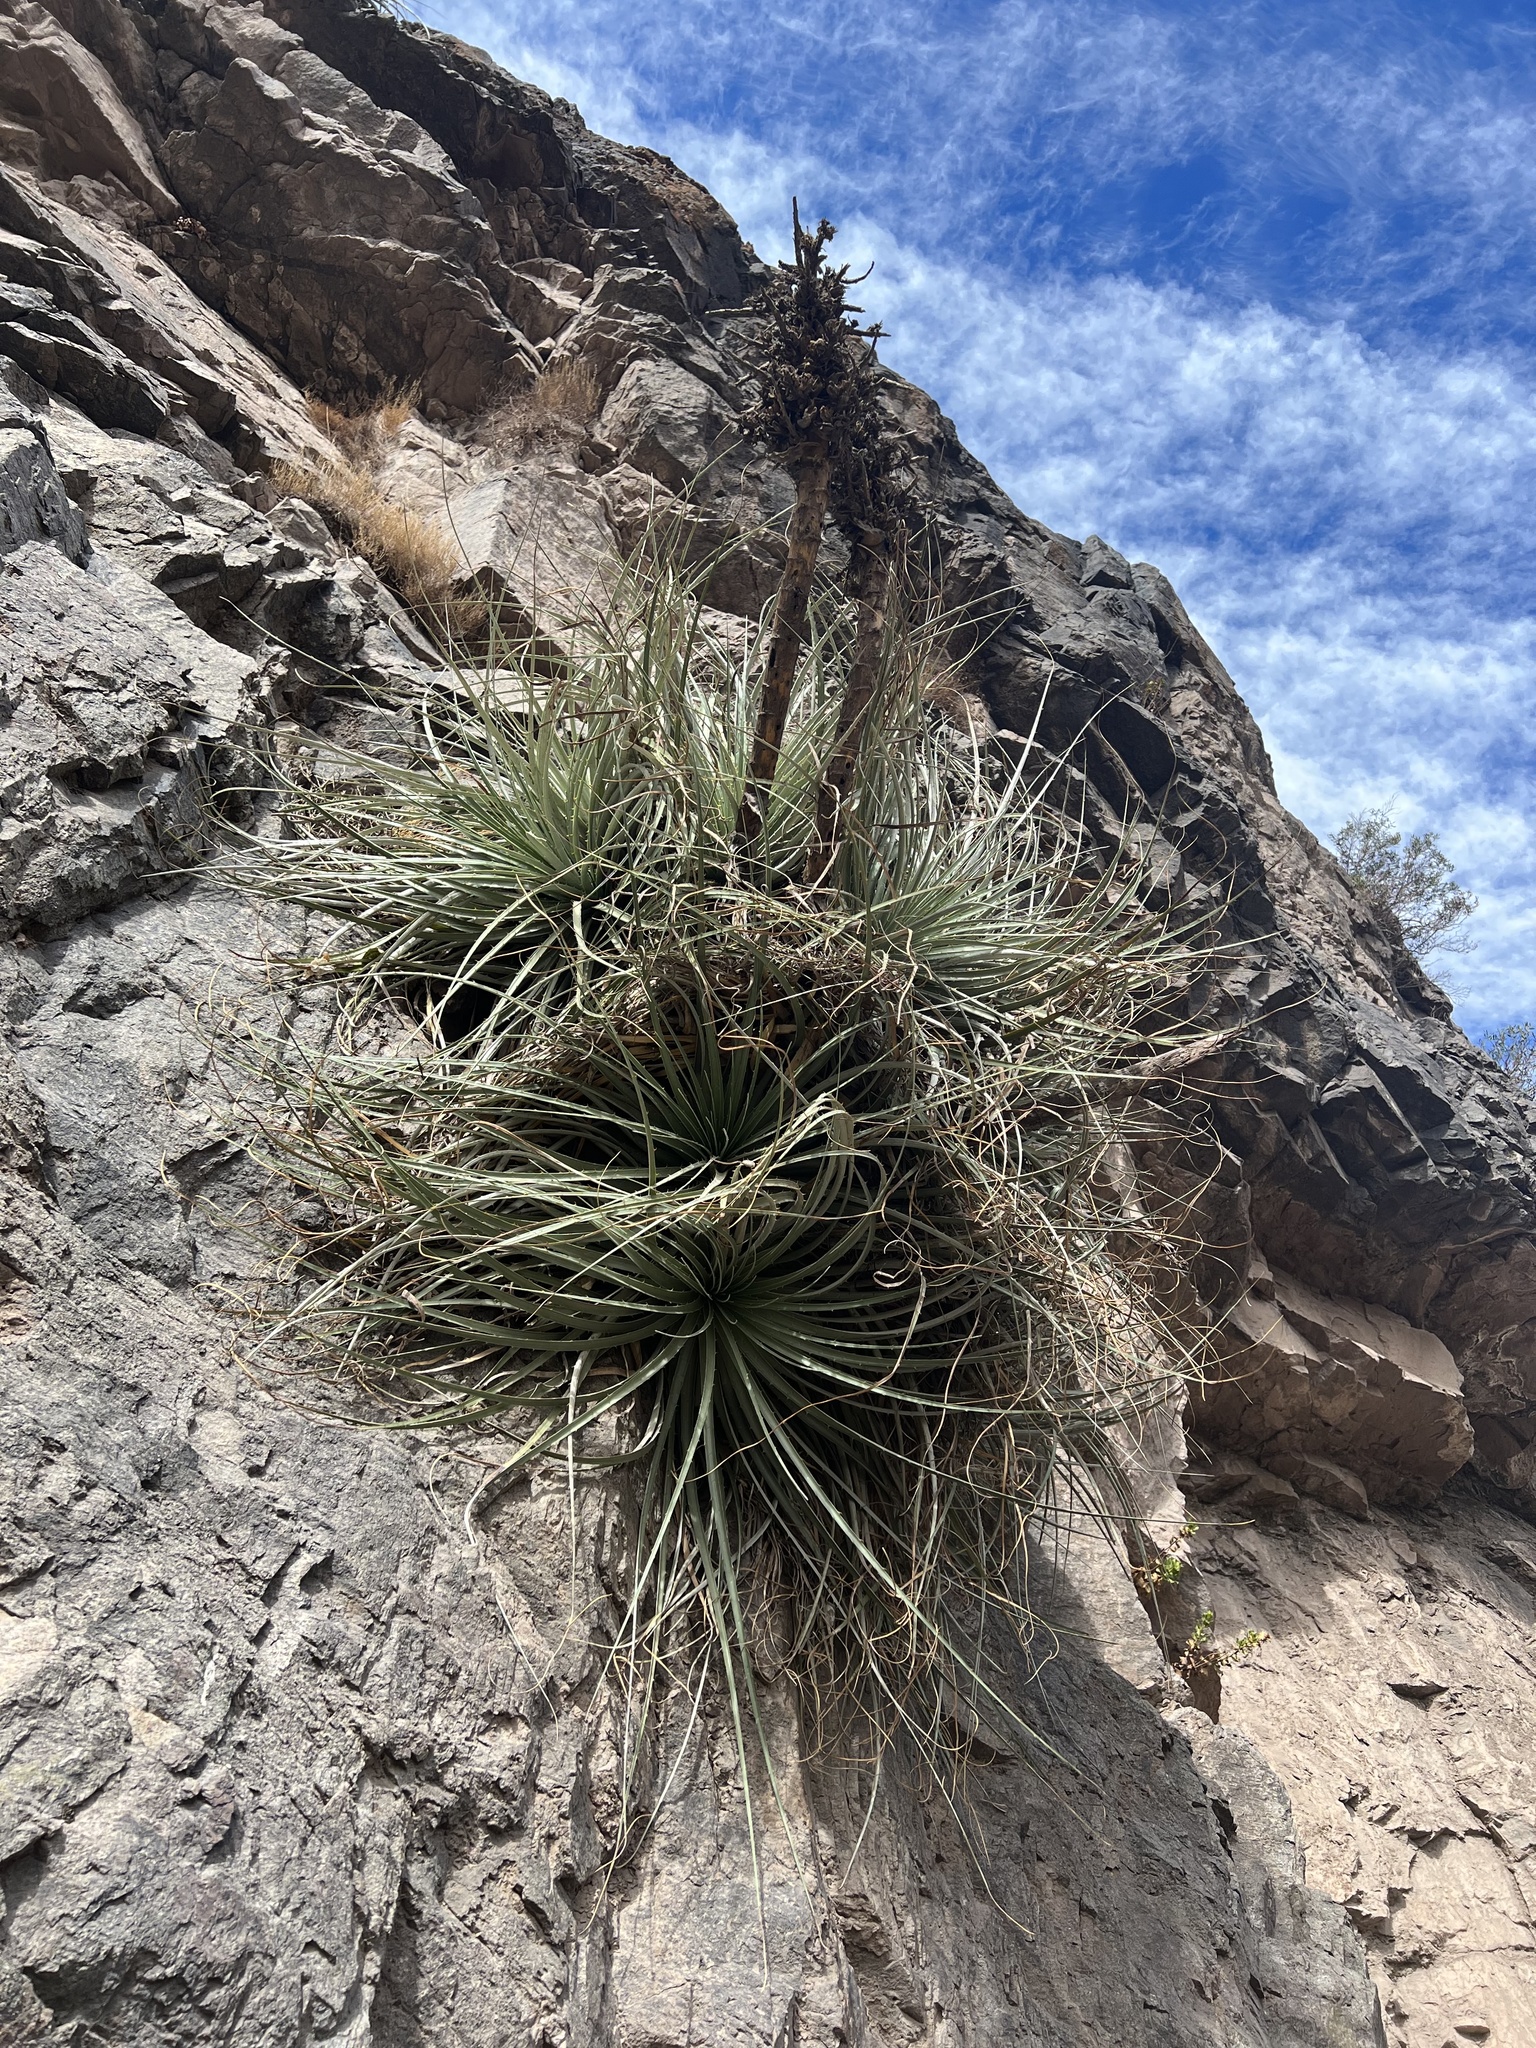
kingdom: Plantae
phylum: Tracheophyta
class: Liliopsida
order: Poales
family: Bromeliaceae
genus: Puya
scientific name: Puya alpestris
